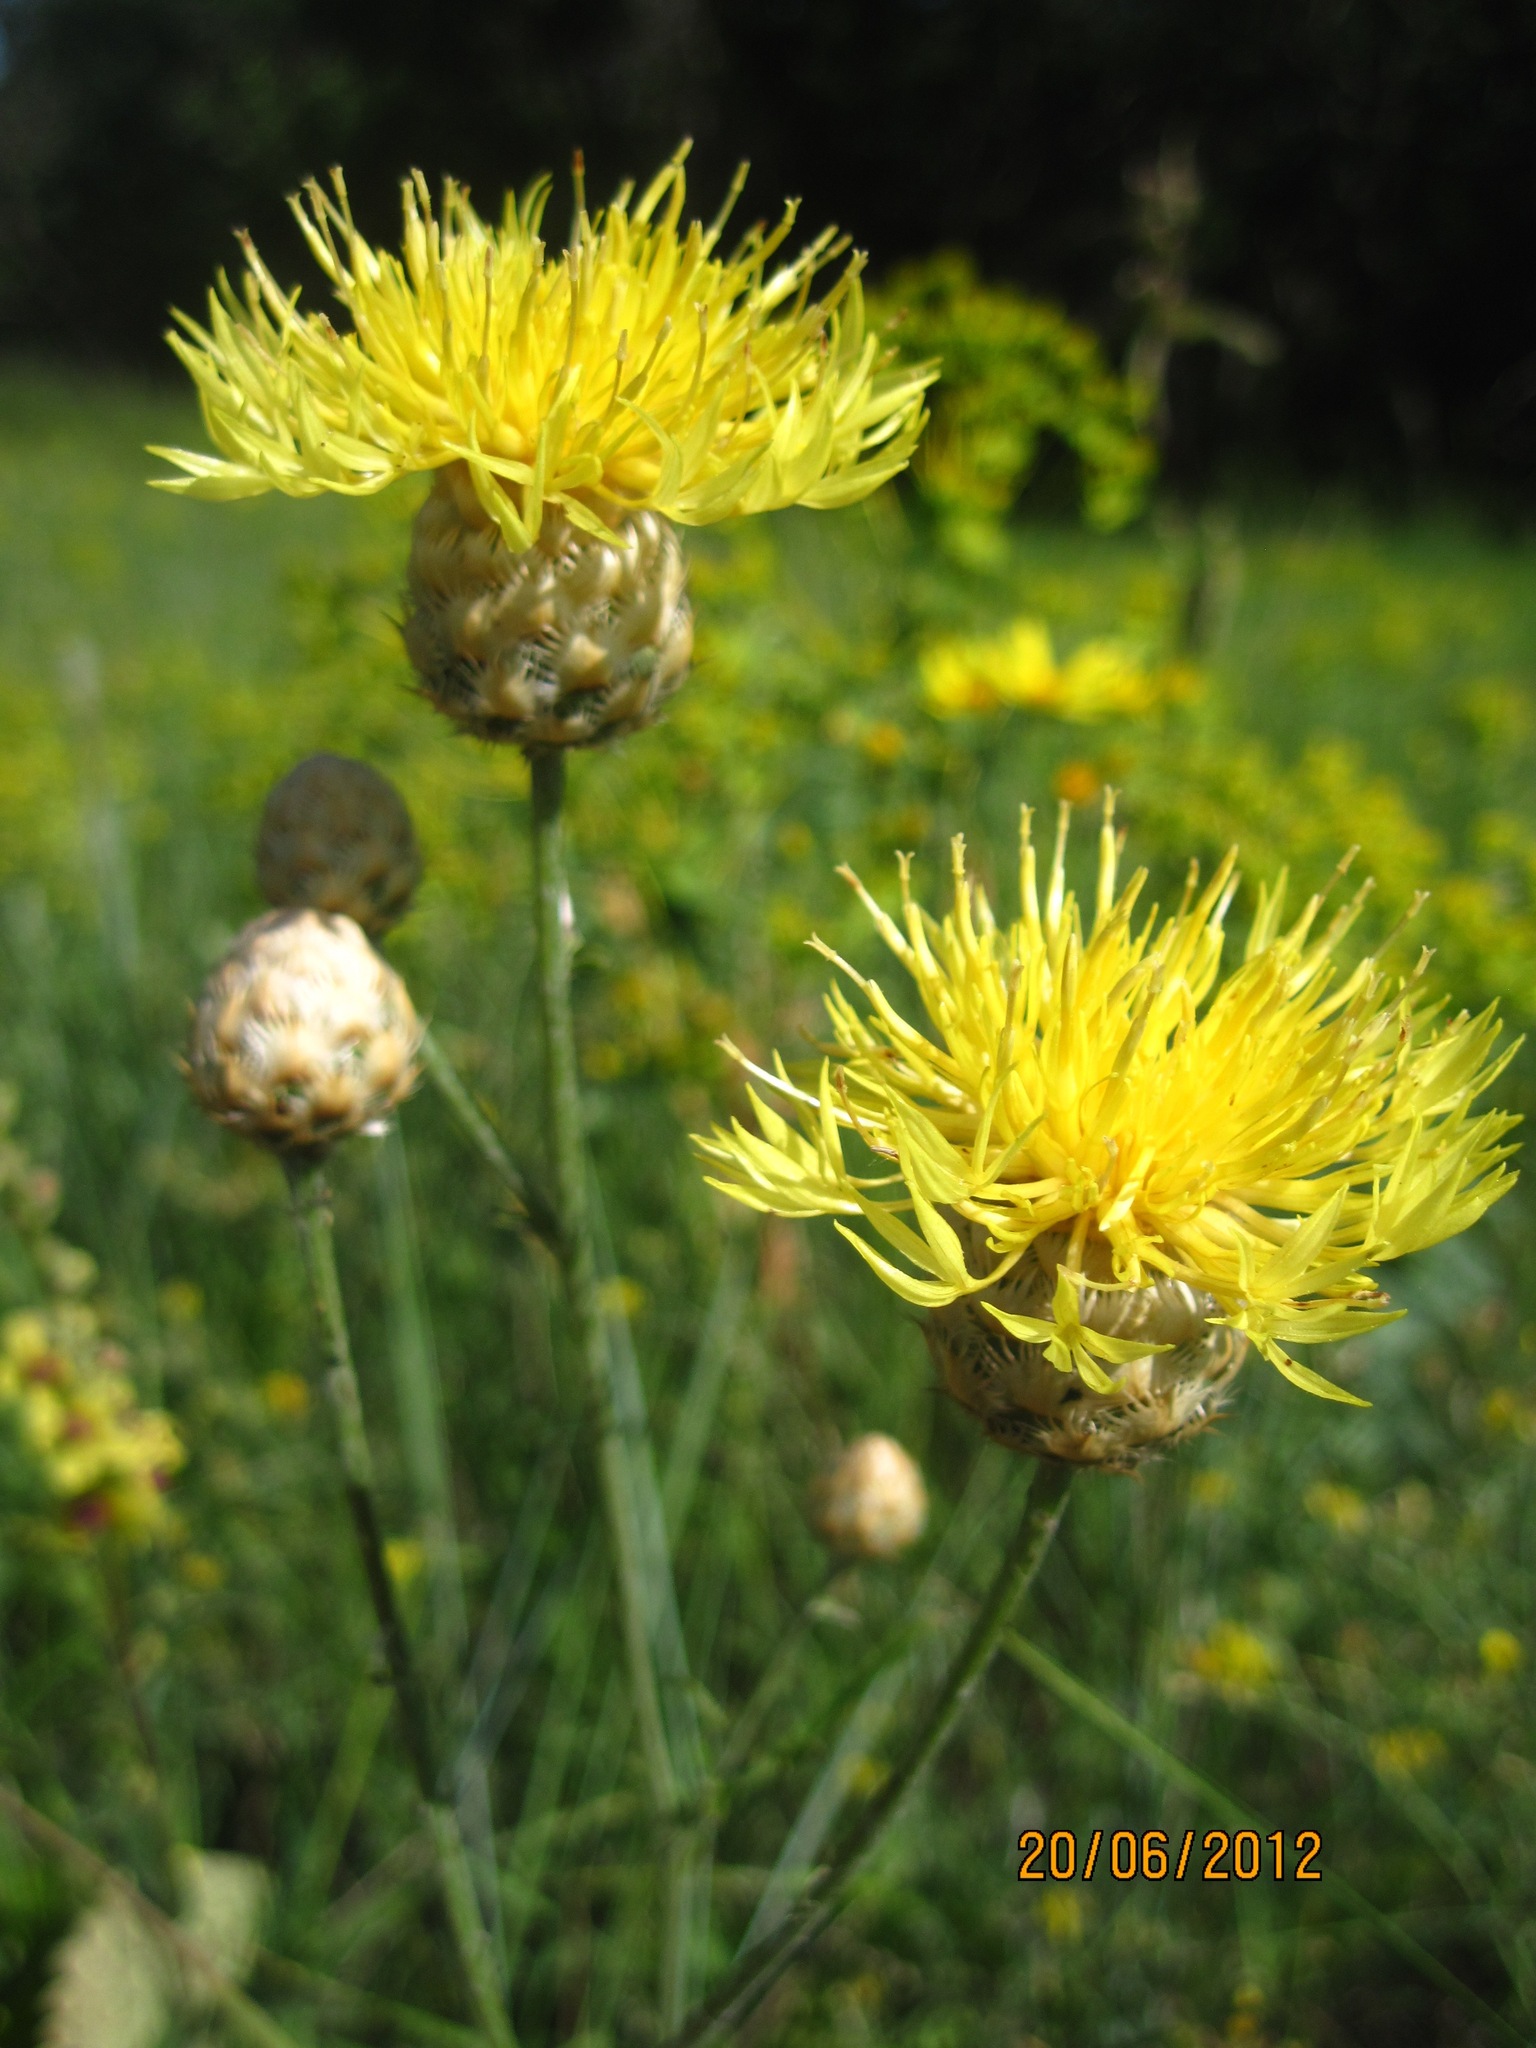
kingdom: Plantae
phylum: Tracheophyta
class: Magnoliopsida
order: Asterales
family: Asteraceae
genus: Centaurea
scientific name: Centaurea orientalis
